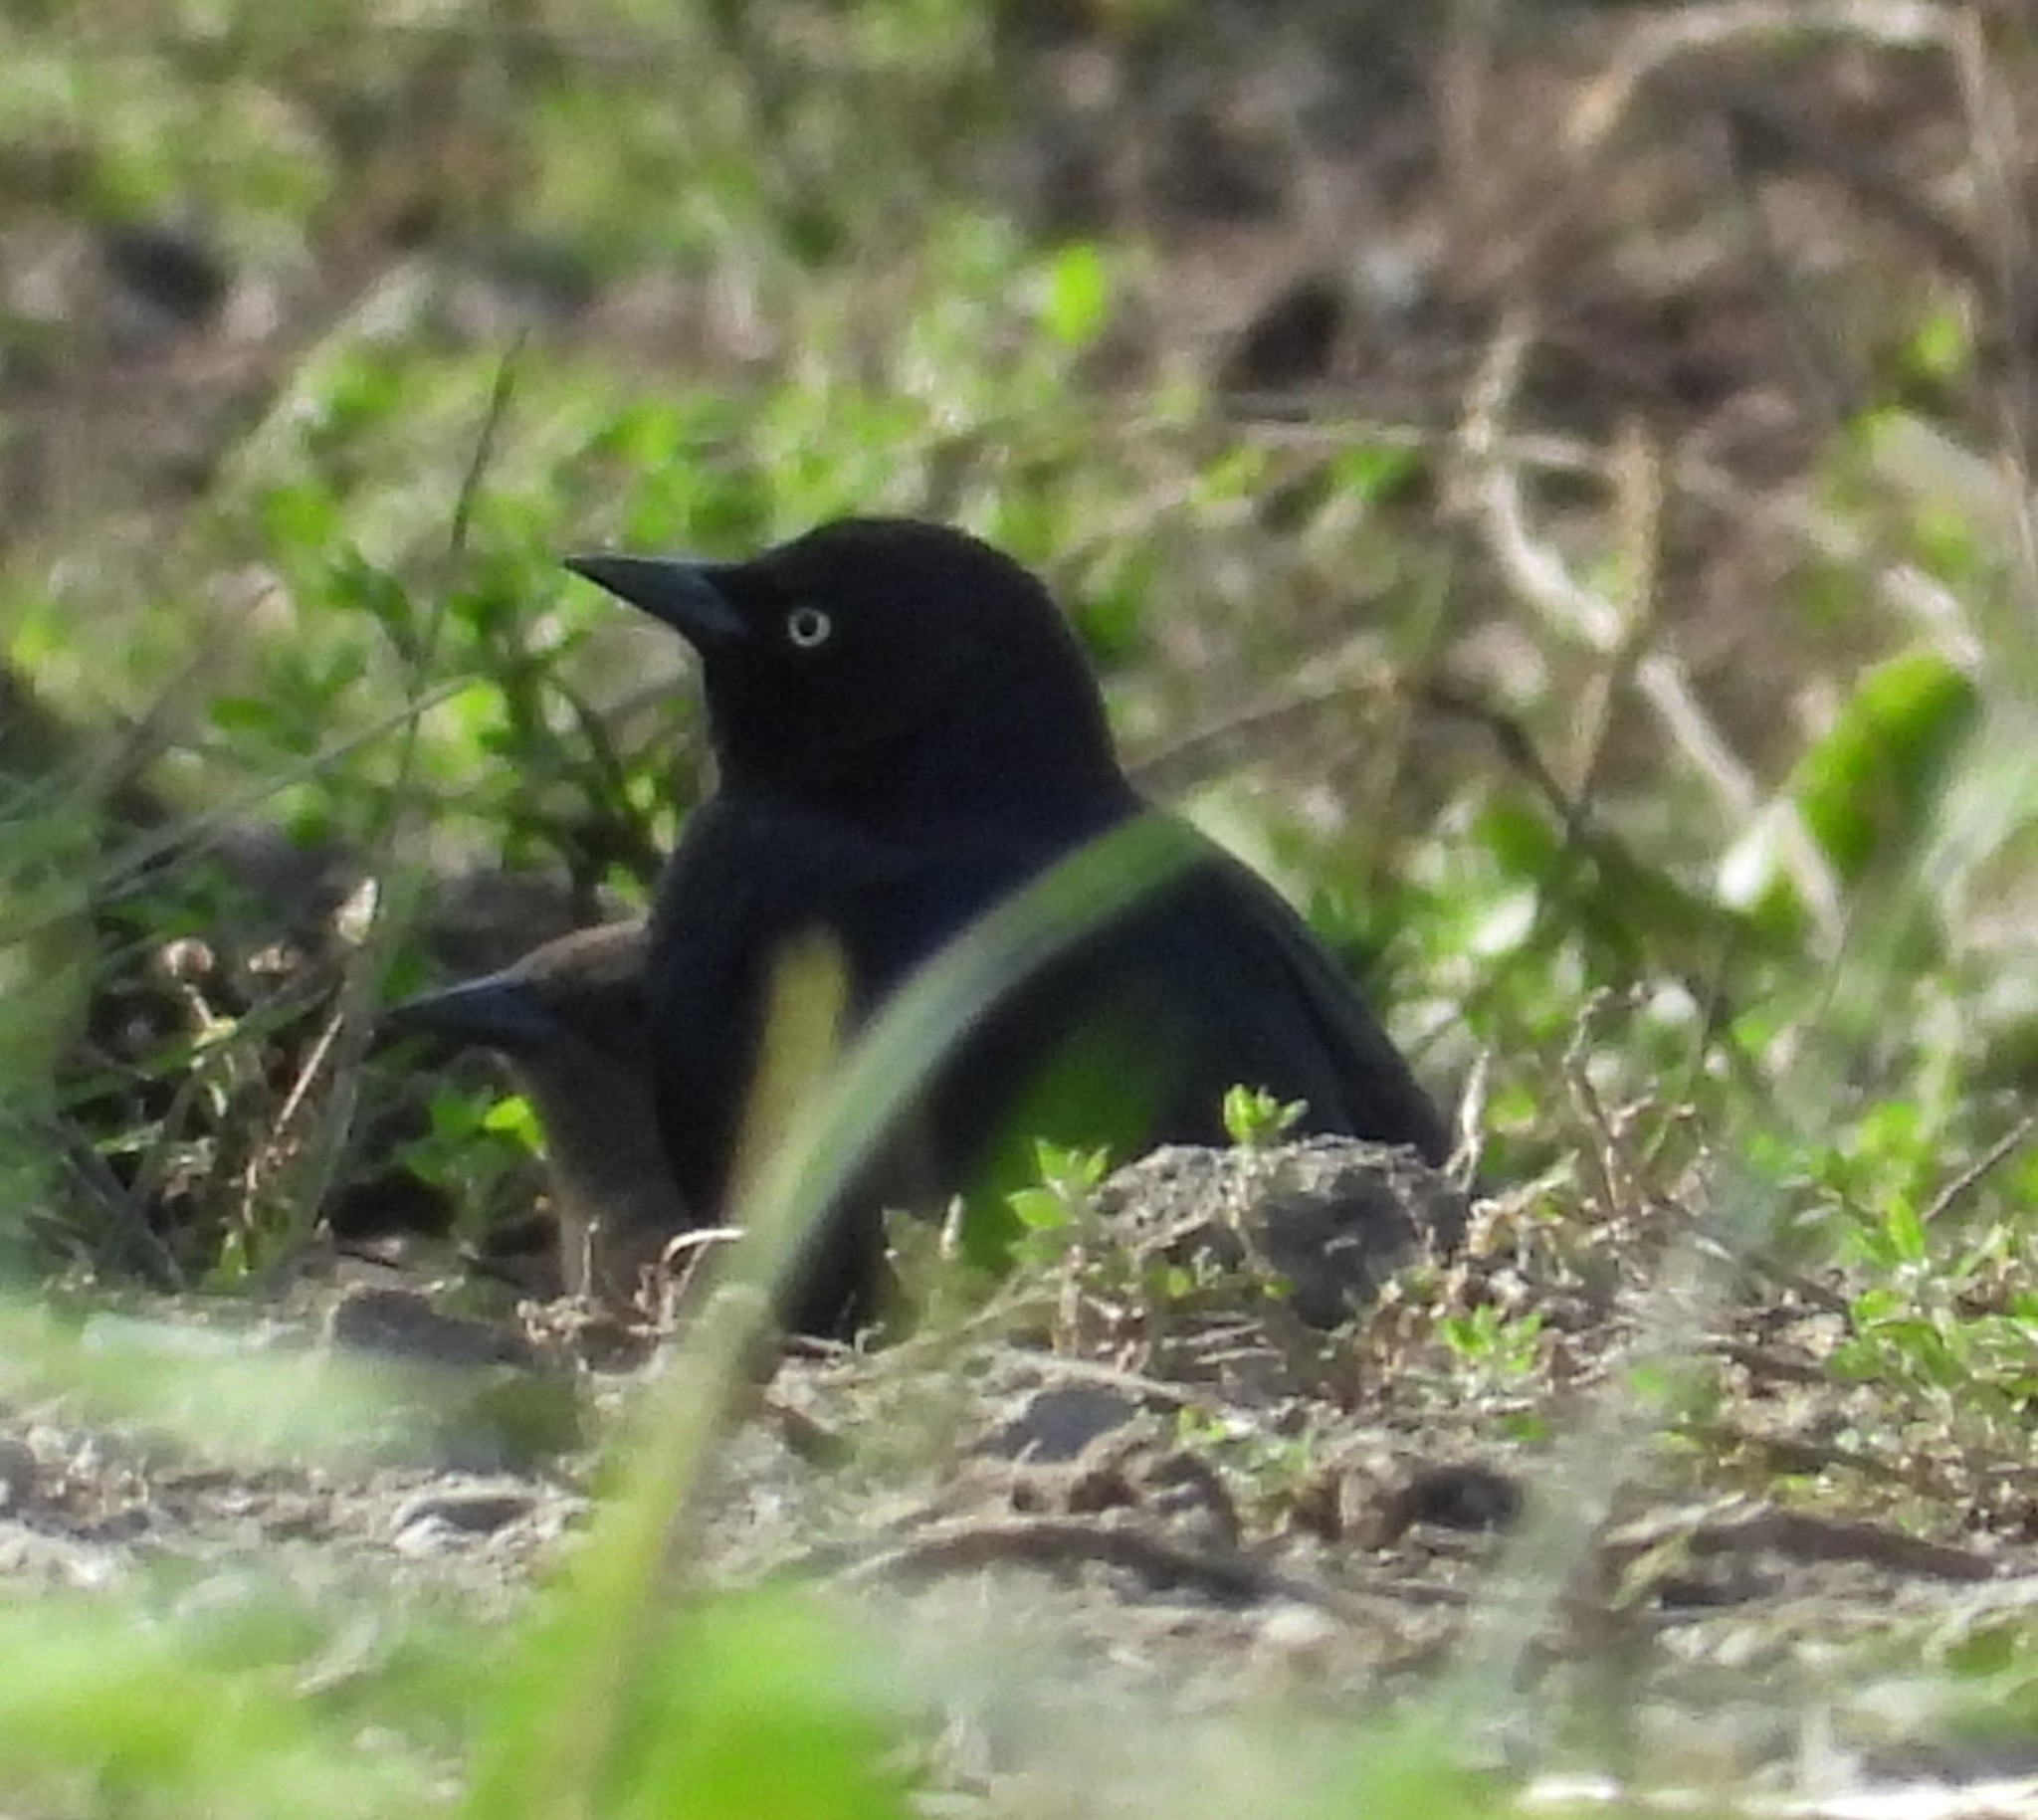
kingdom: Animalia
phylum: Chordata
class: Aves
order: Passeriformes
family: Icteridae
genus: Euphagus
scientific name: Euphagus cyanocephalus
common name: Brewer's blackbird
